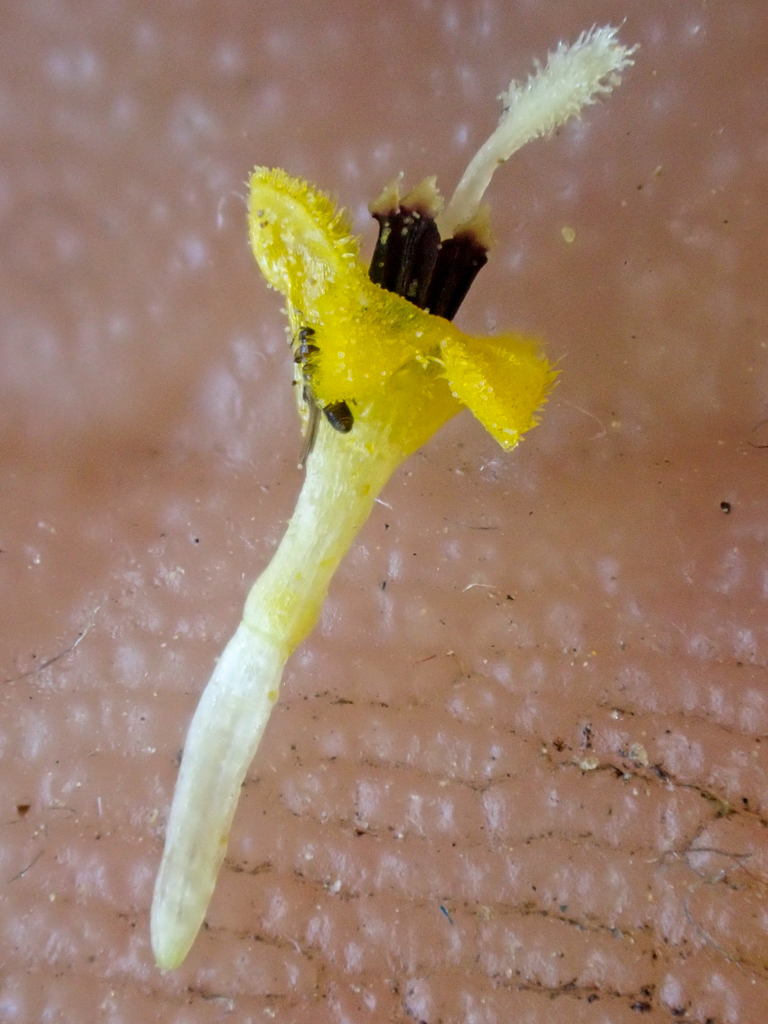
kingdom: Plantae
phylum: Tracheophyta
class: Magnoliopsida
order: Asterales
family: Asteraceae
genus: Hemizonia
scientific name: Hemizonia congesta
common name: Hayfield tarweed
